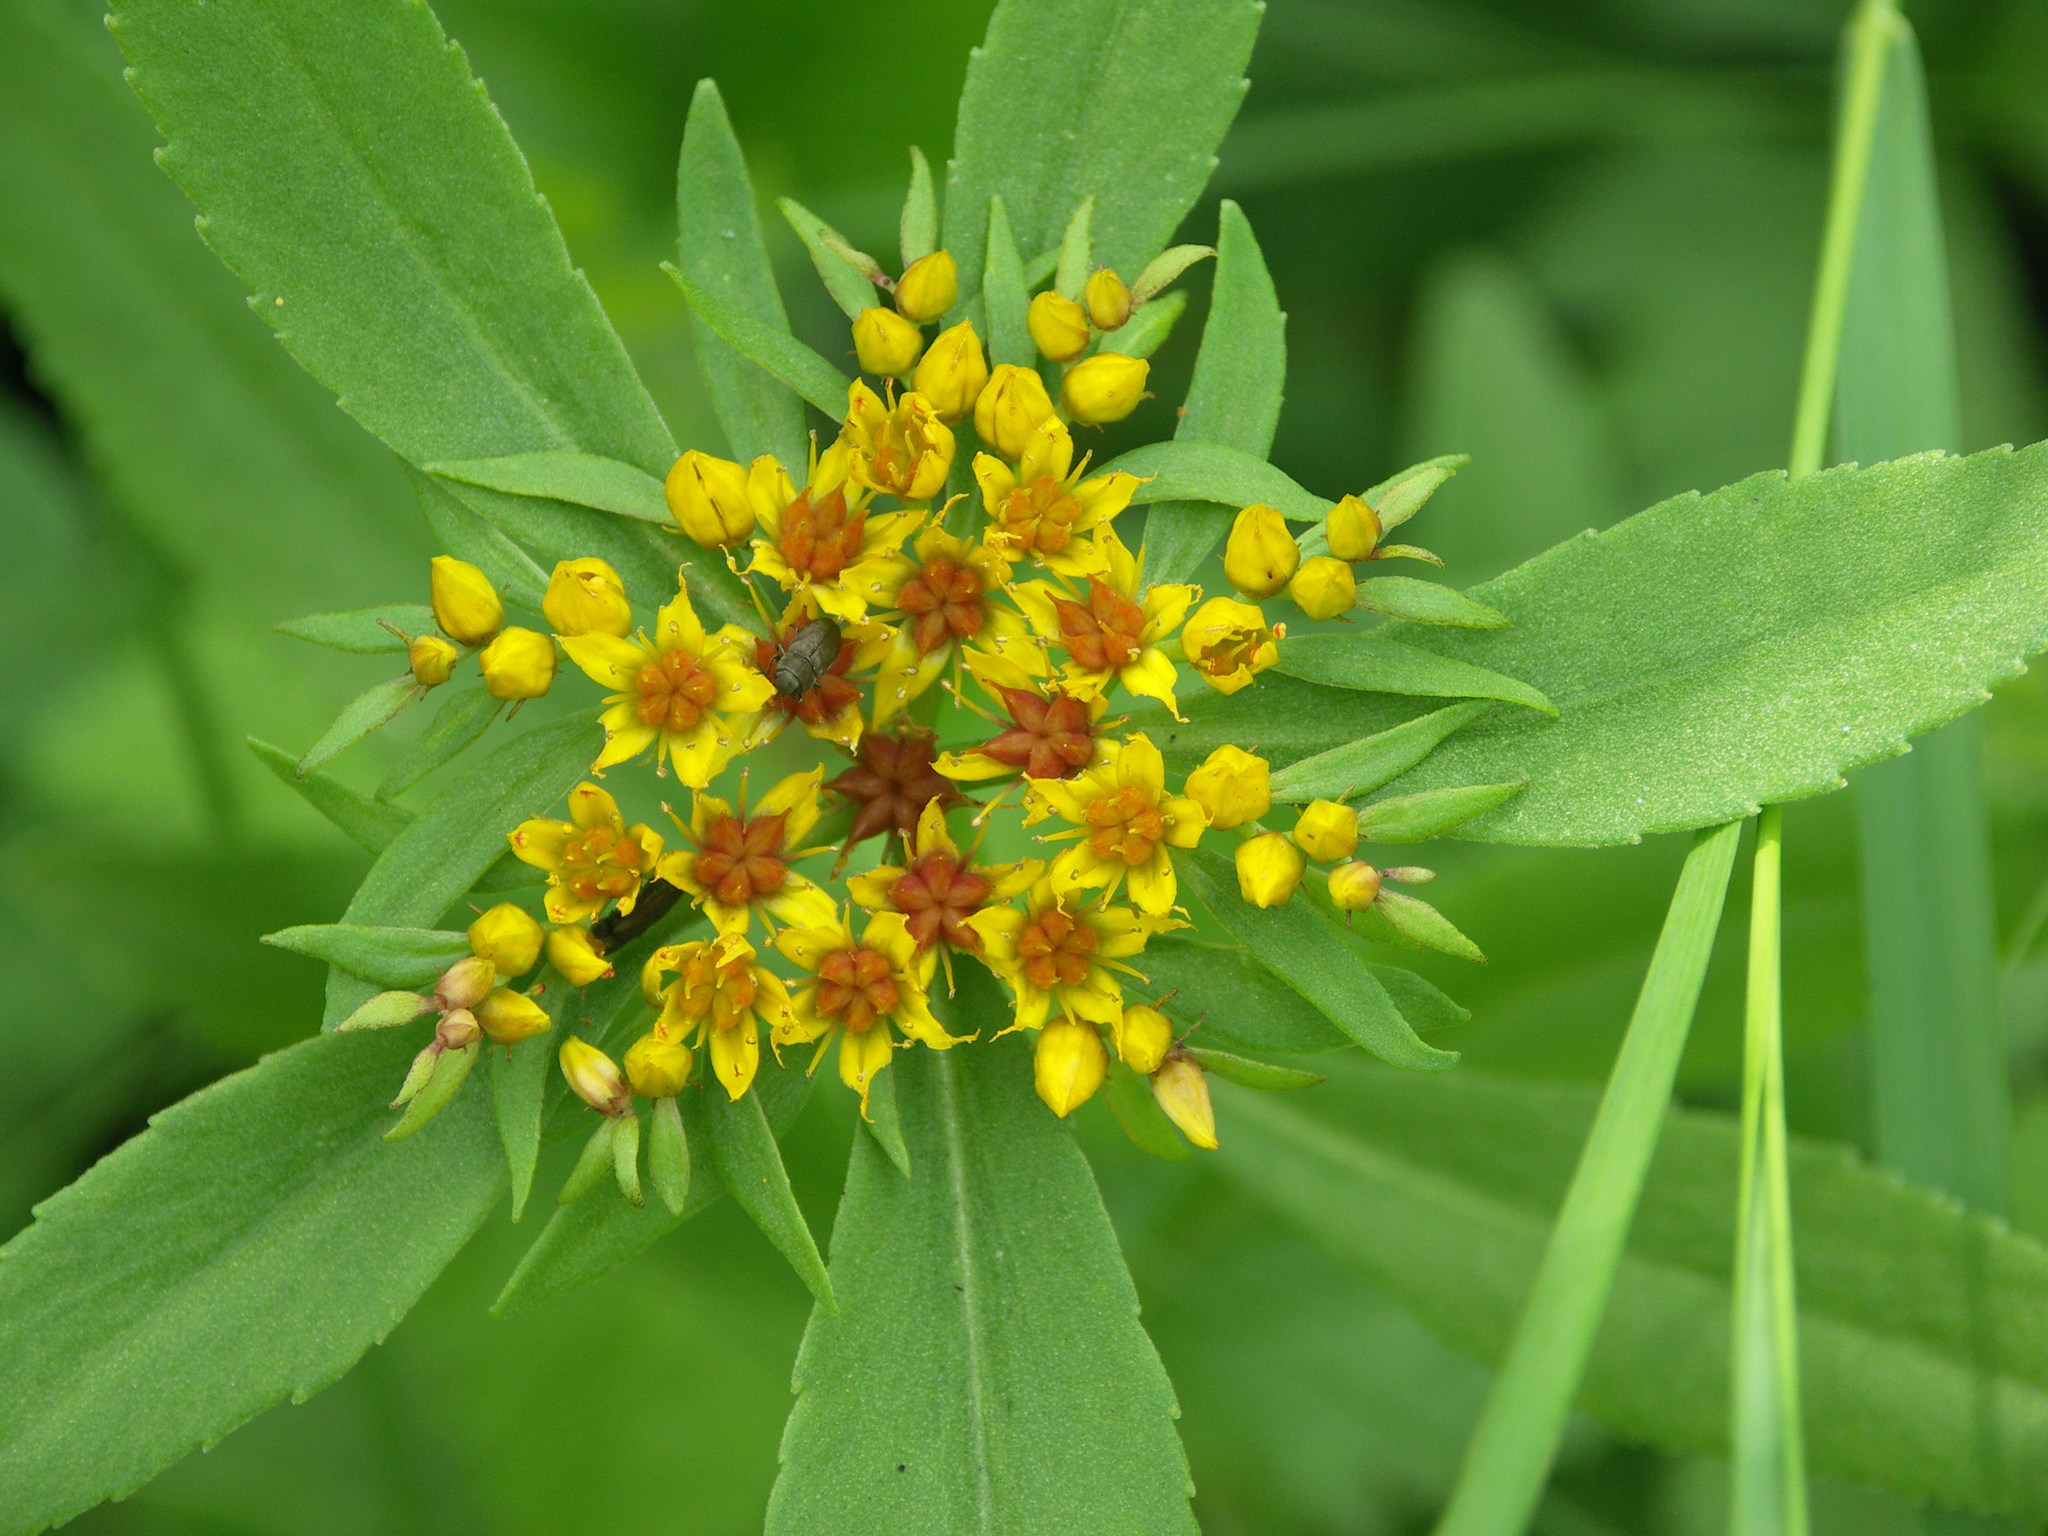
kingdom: Plantae
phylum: Tracheophyta
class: Magnoliopsida
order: Saxifragales
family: Crassulaceae
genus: Phedimus
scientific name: Phedimus aizoon
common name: Orpin aizoon
